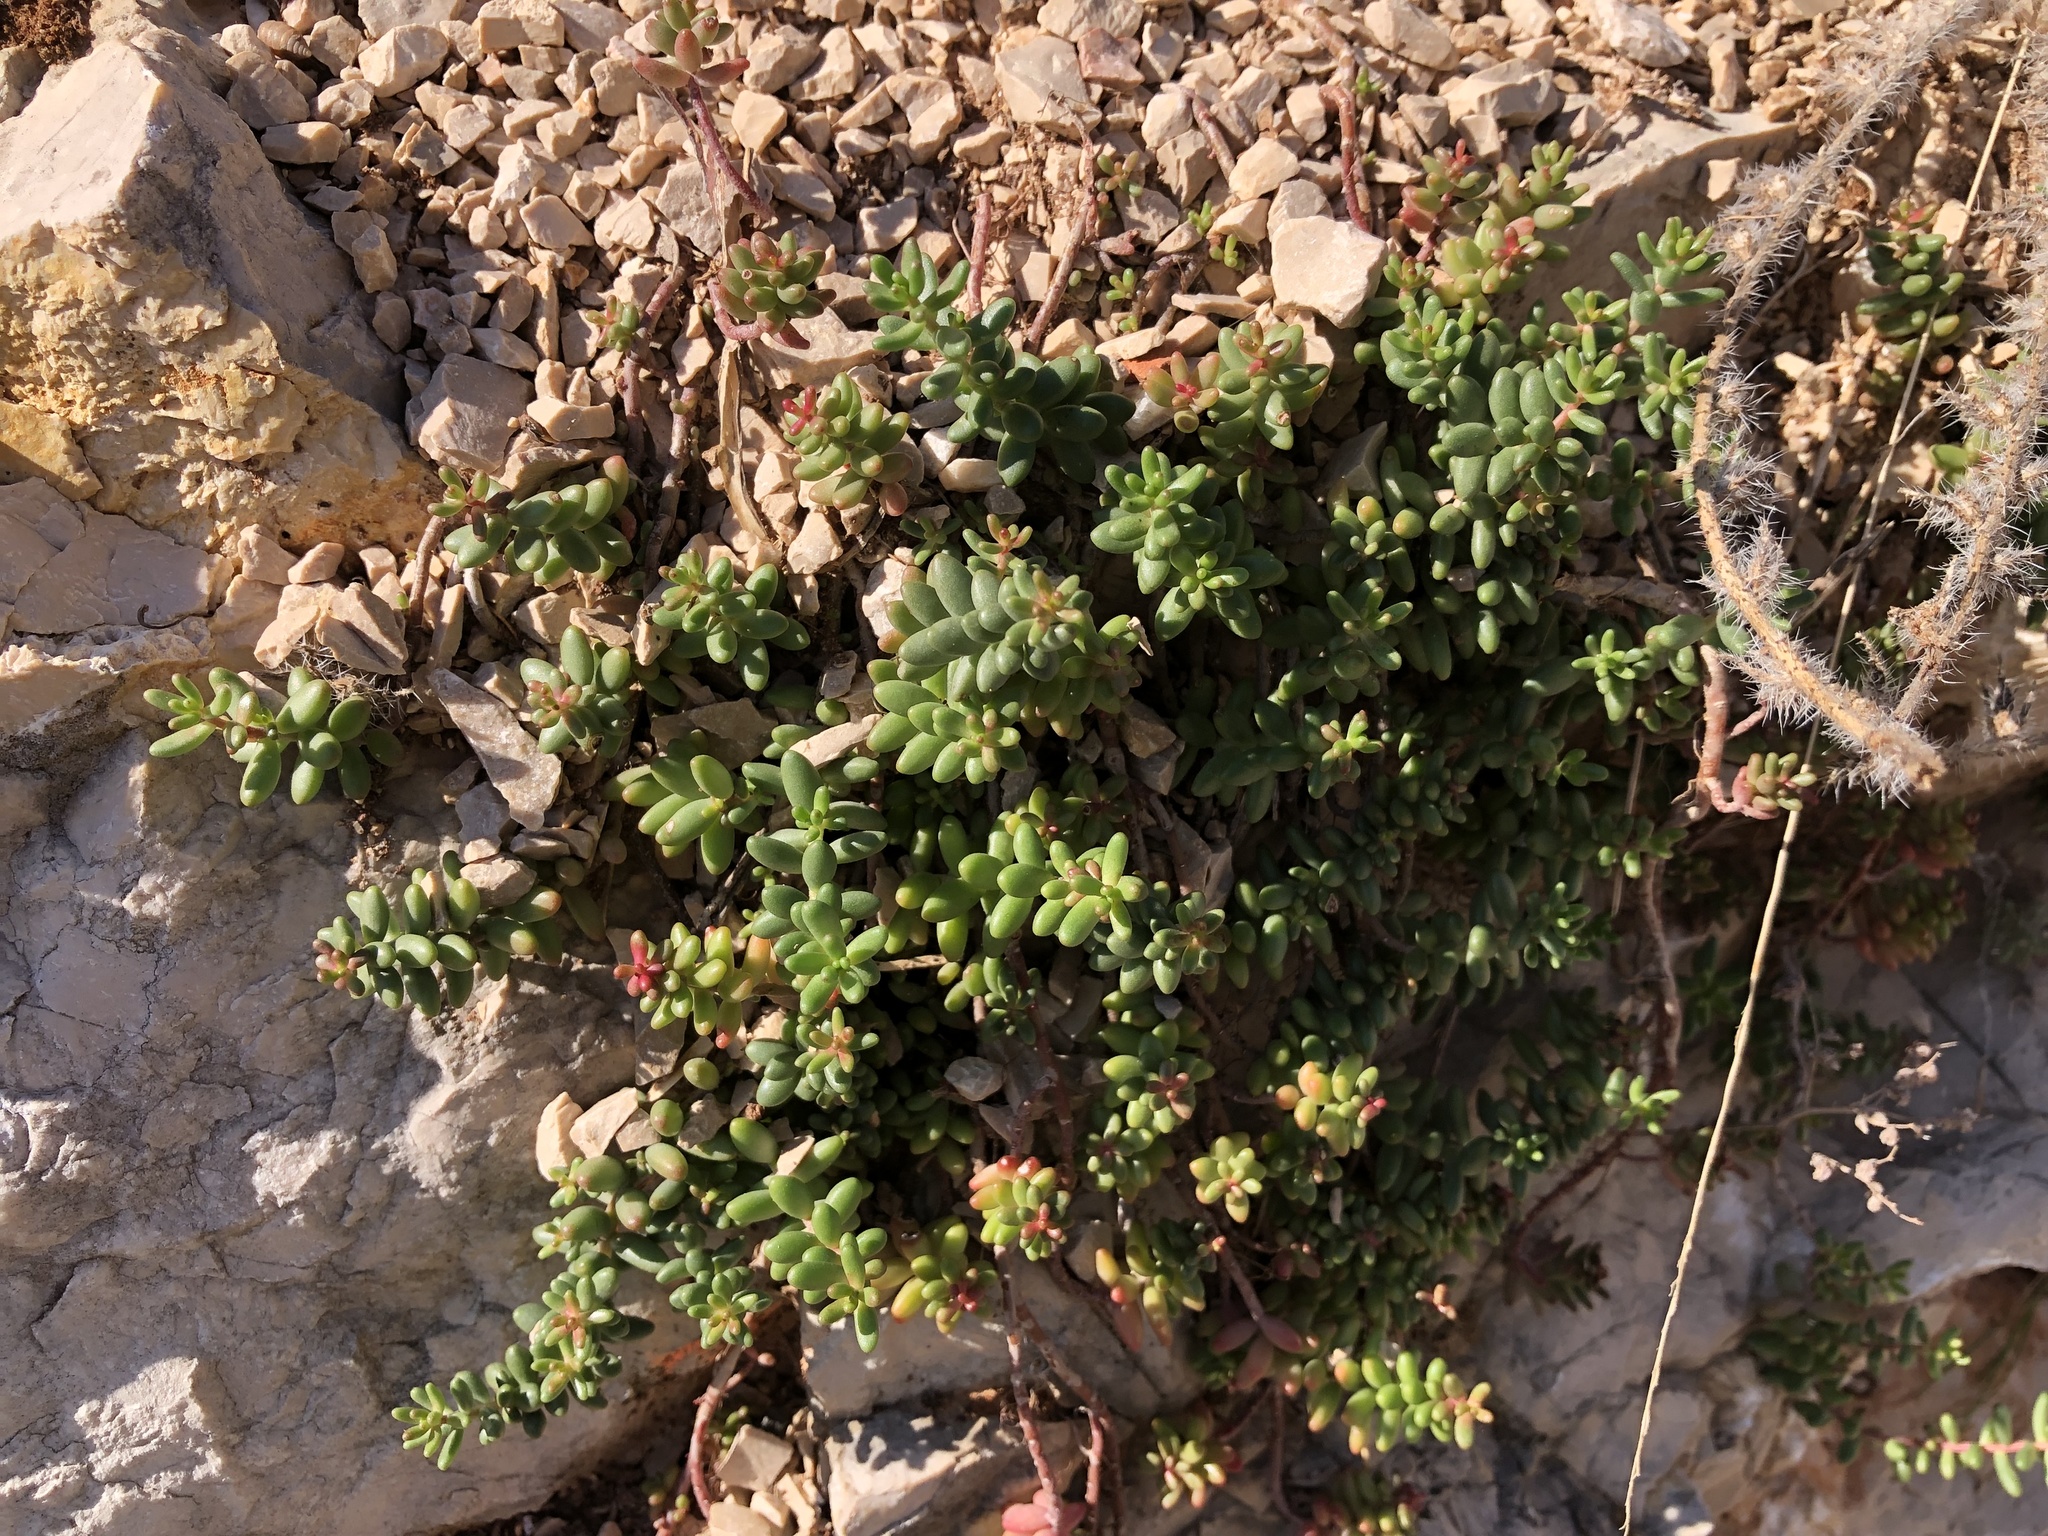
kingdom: Plantae
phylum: Tracheophyta
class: Magnoliopsida
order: Saxifragales
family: Crassulaceae
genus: Sedum
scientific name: Sedum album
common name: White stonecrop
